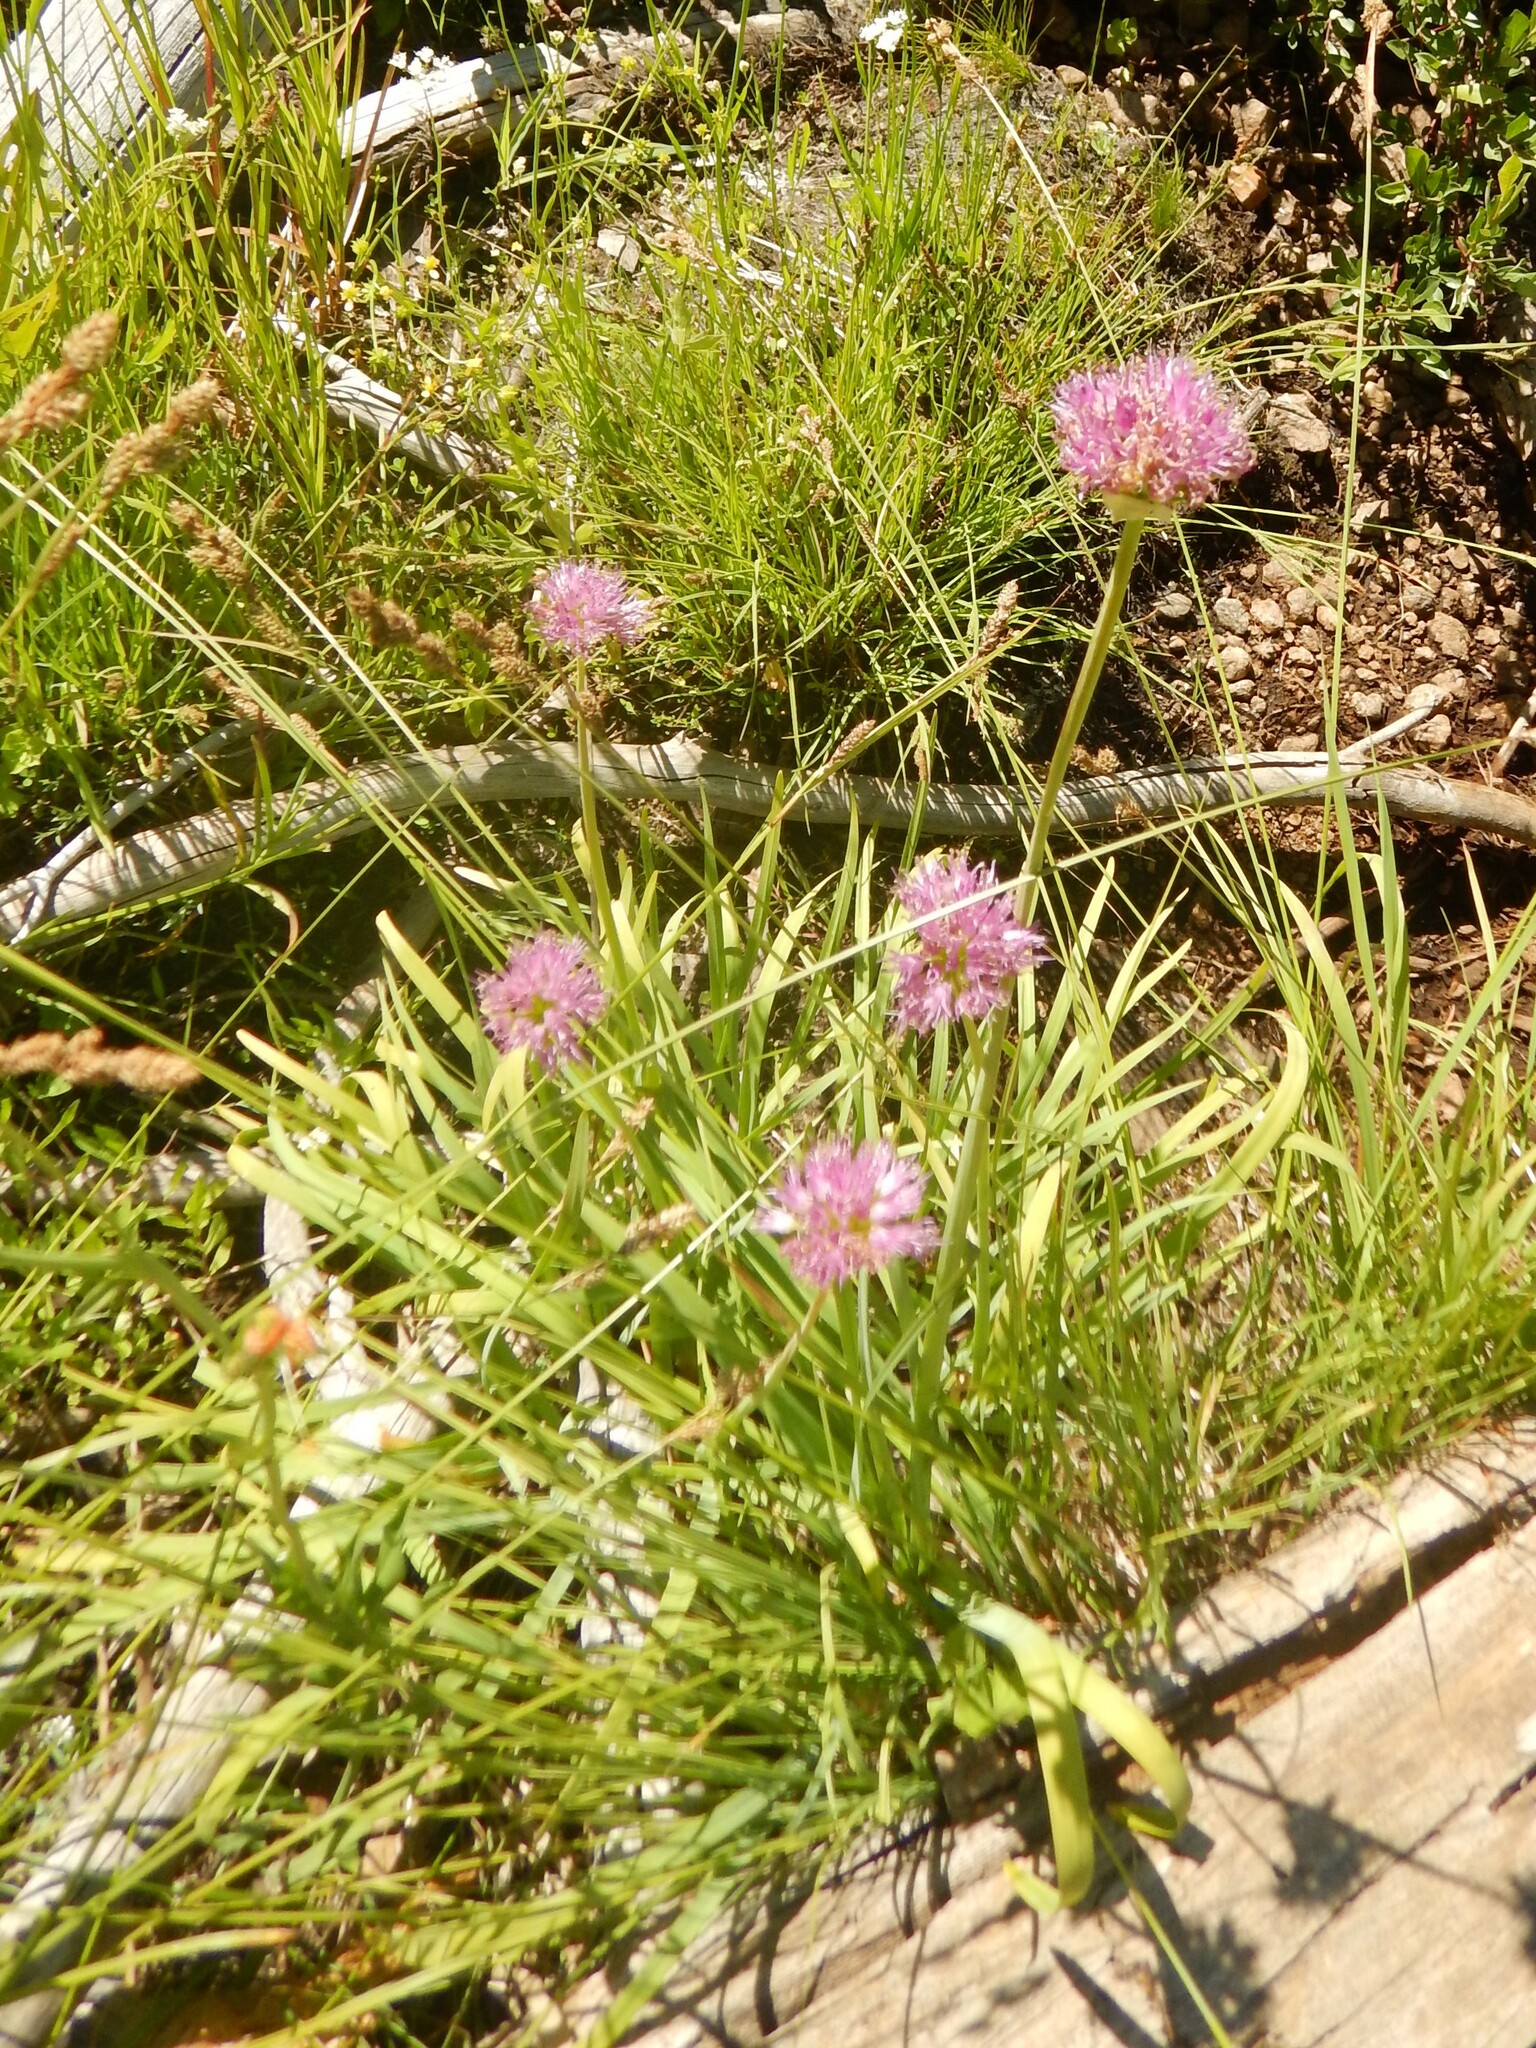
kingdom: Plantae
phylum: Tracheophyta
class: Liliopsida
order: Asparagales
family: Amaryllidaceae
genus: Allium
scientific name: Allium validum
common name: Pacific mountain onion
